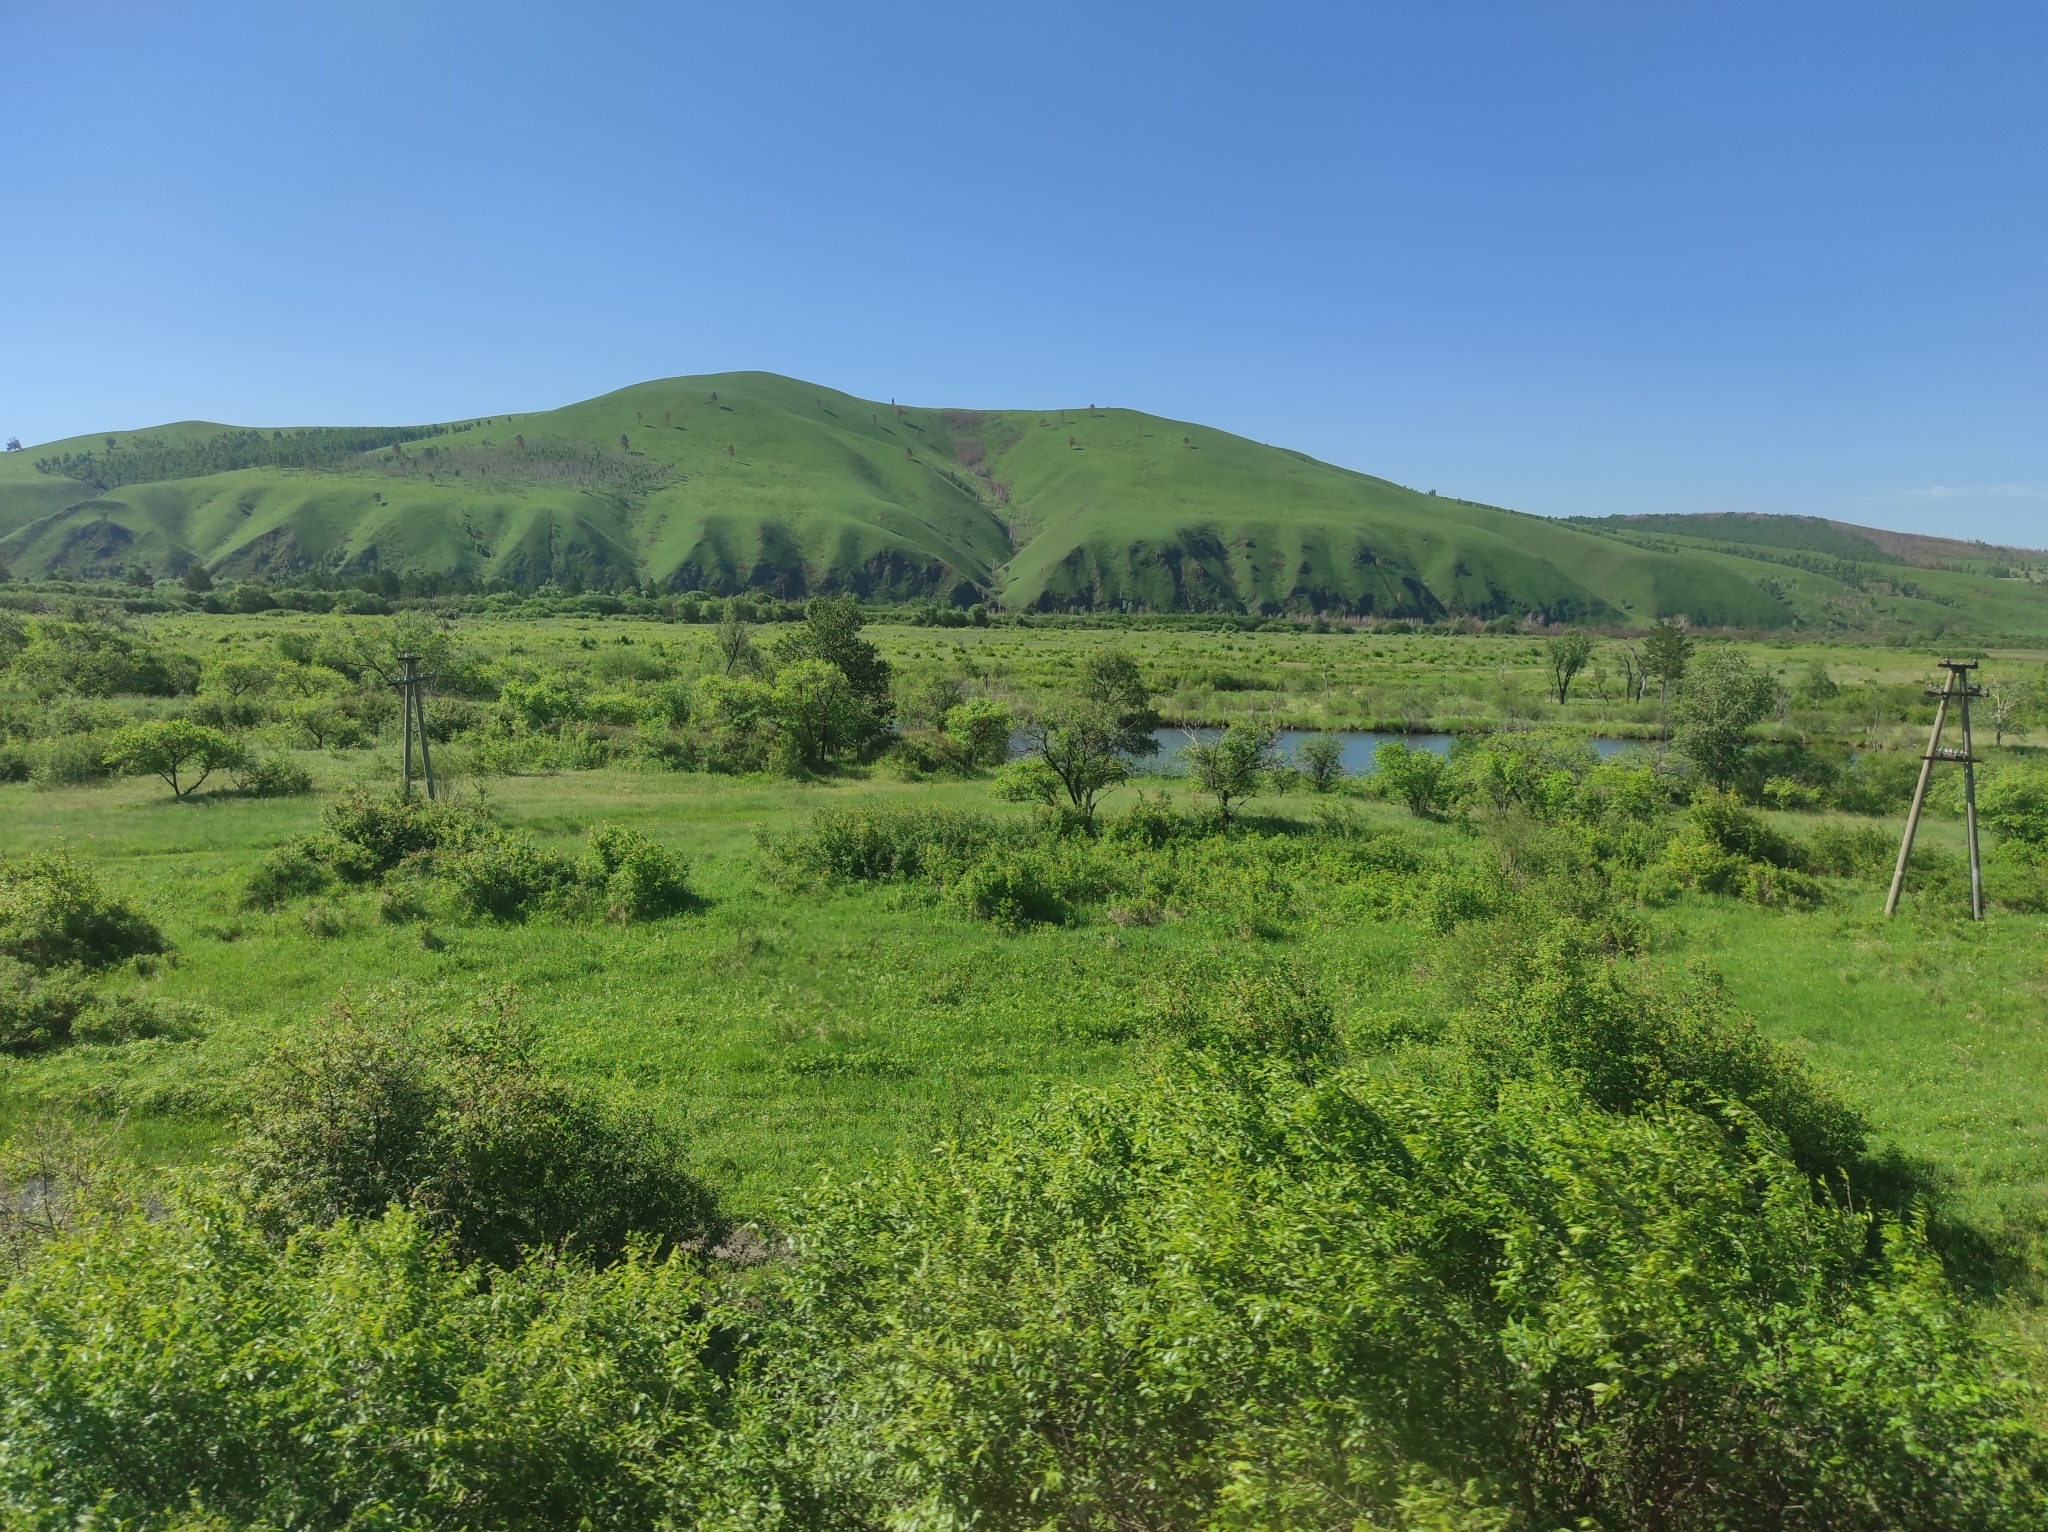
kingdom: Plantae
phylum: Tracheophyta
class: Pinopsida
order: Pinales
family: Pinaceae
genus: Pinus
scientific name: Pinus sylvestris
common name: Scots pine
